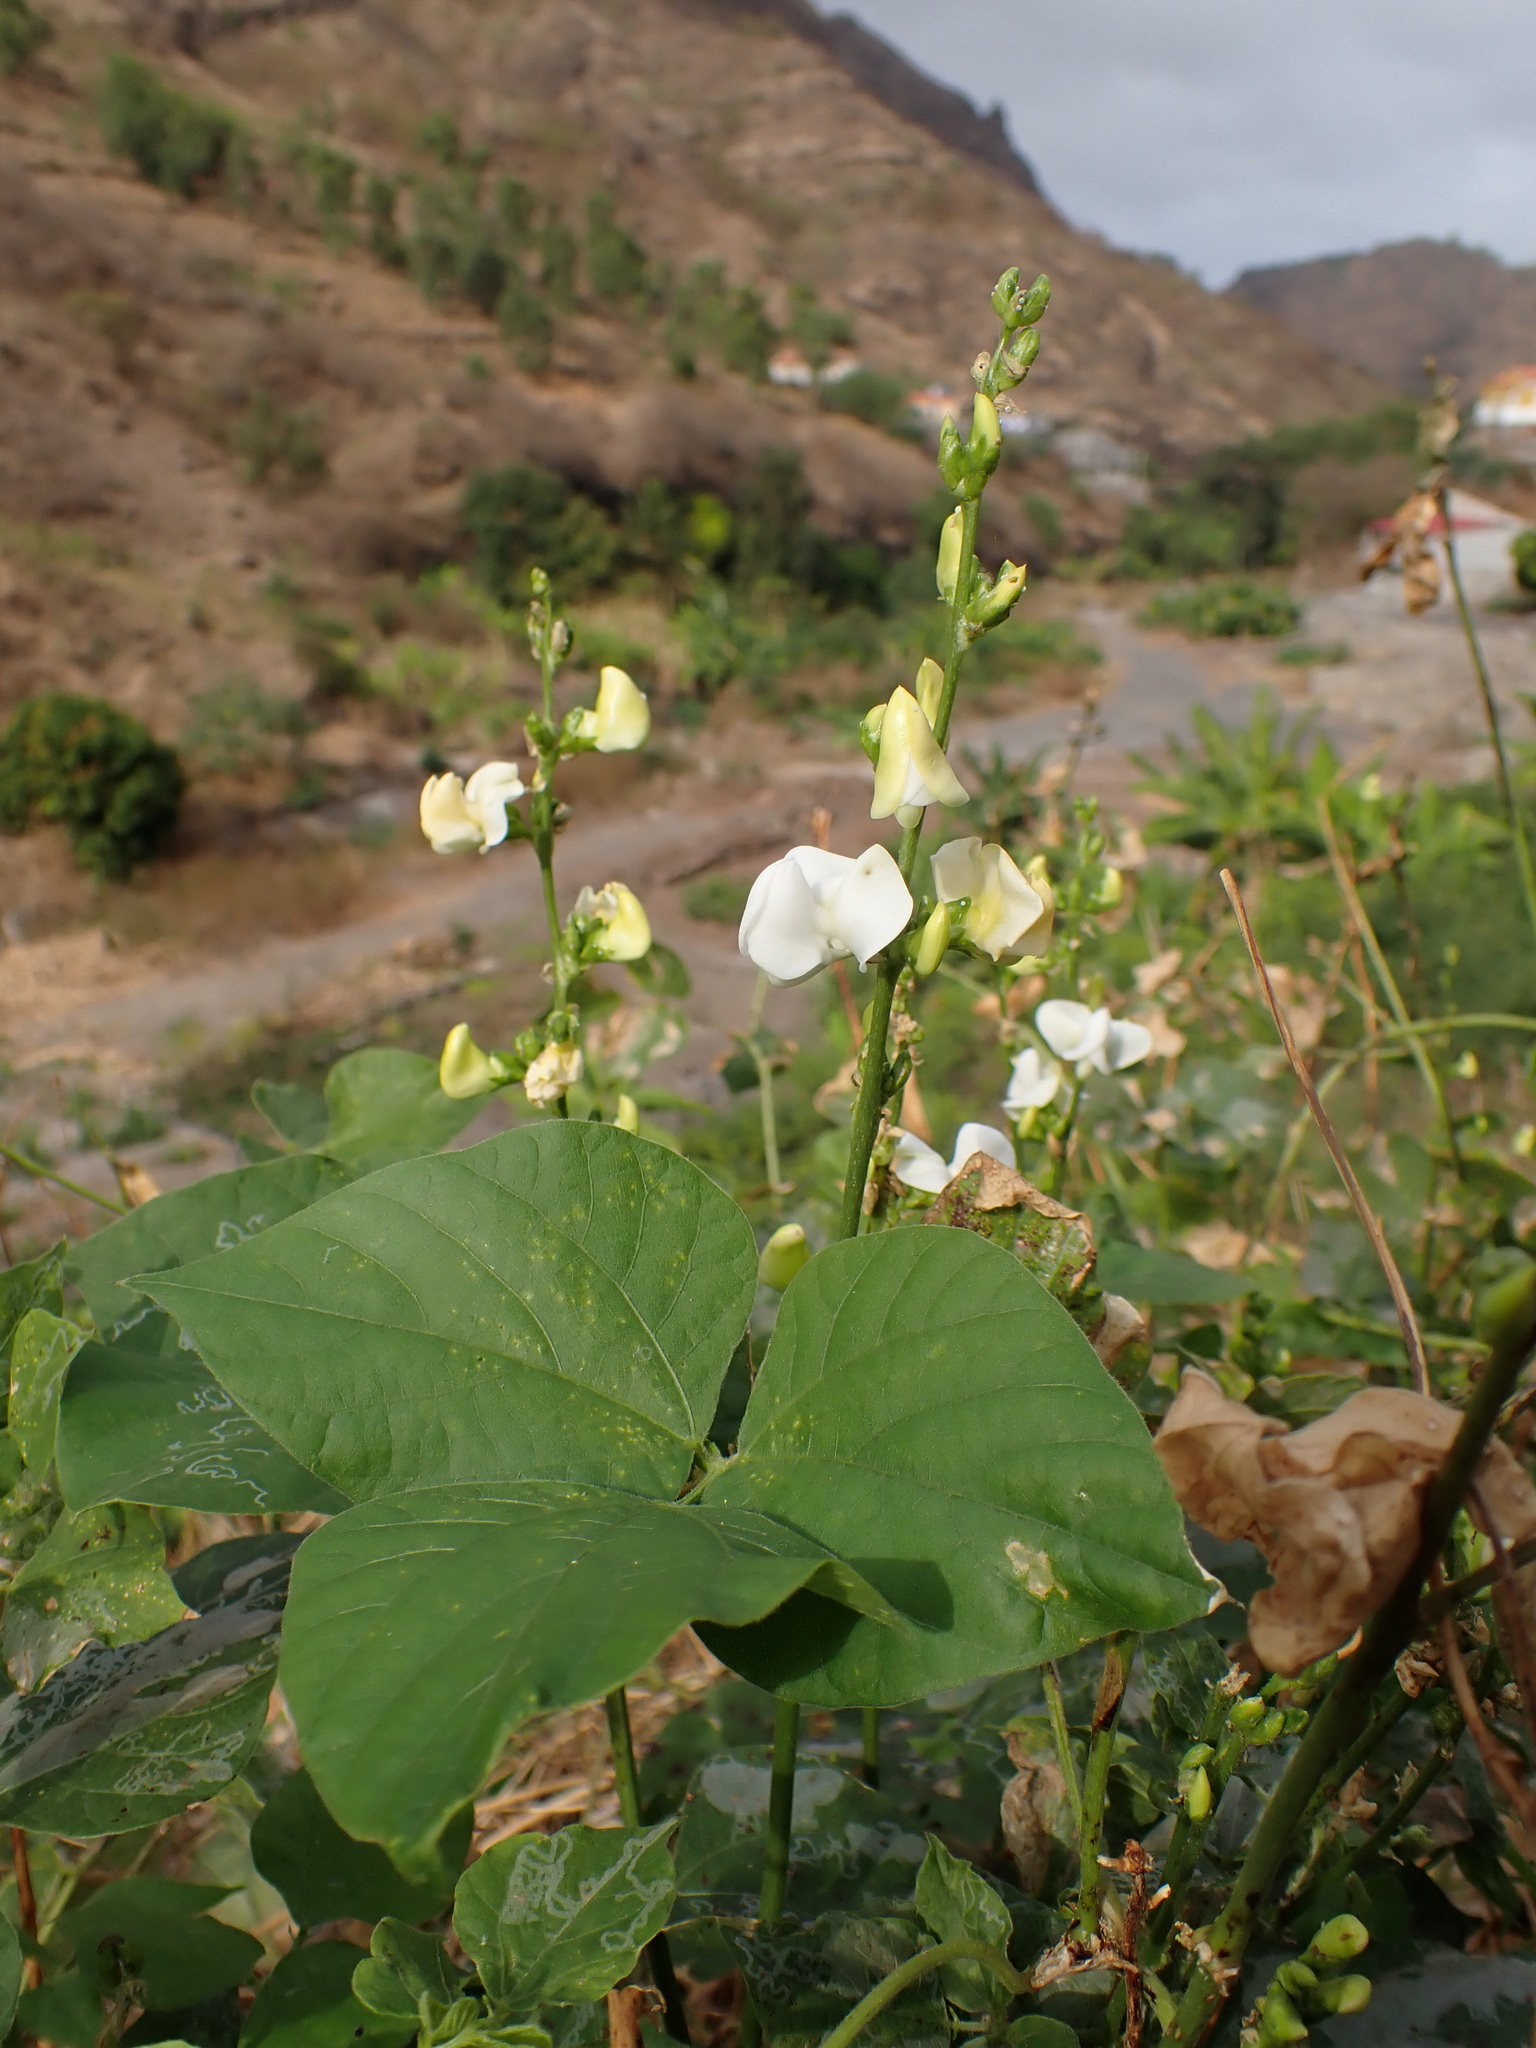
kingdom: Plantae
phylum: Tracheophyta
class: Magnoliopsida
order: Fabales
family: Fabaceae
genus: Lablab
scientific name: Lablab purpureus
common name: Lablab-bean
